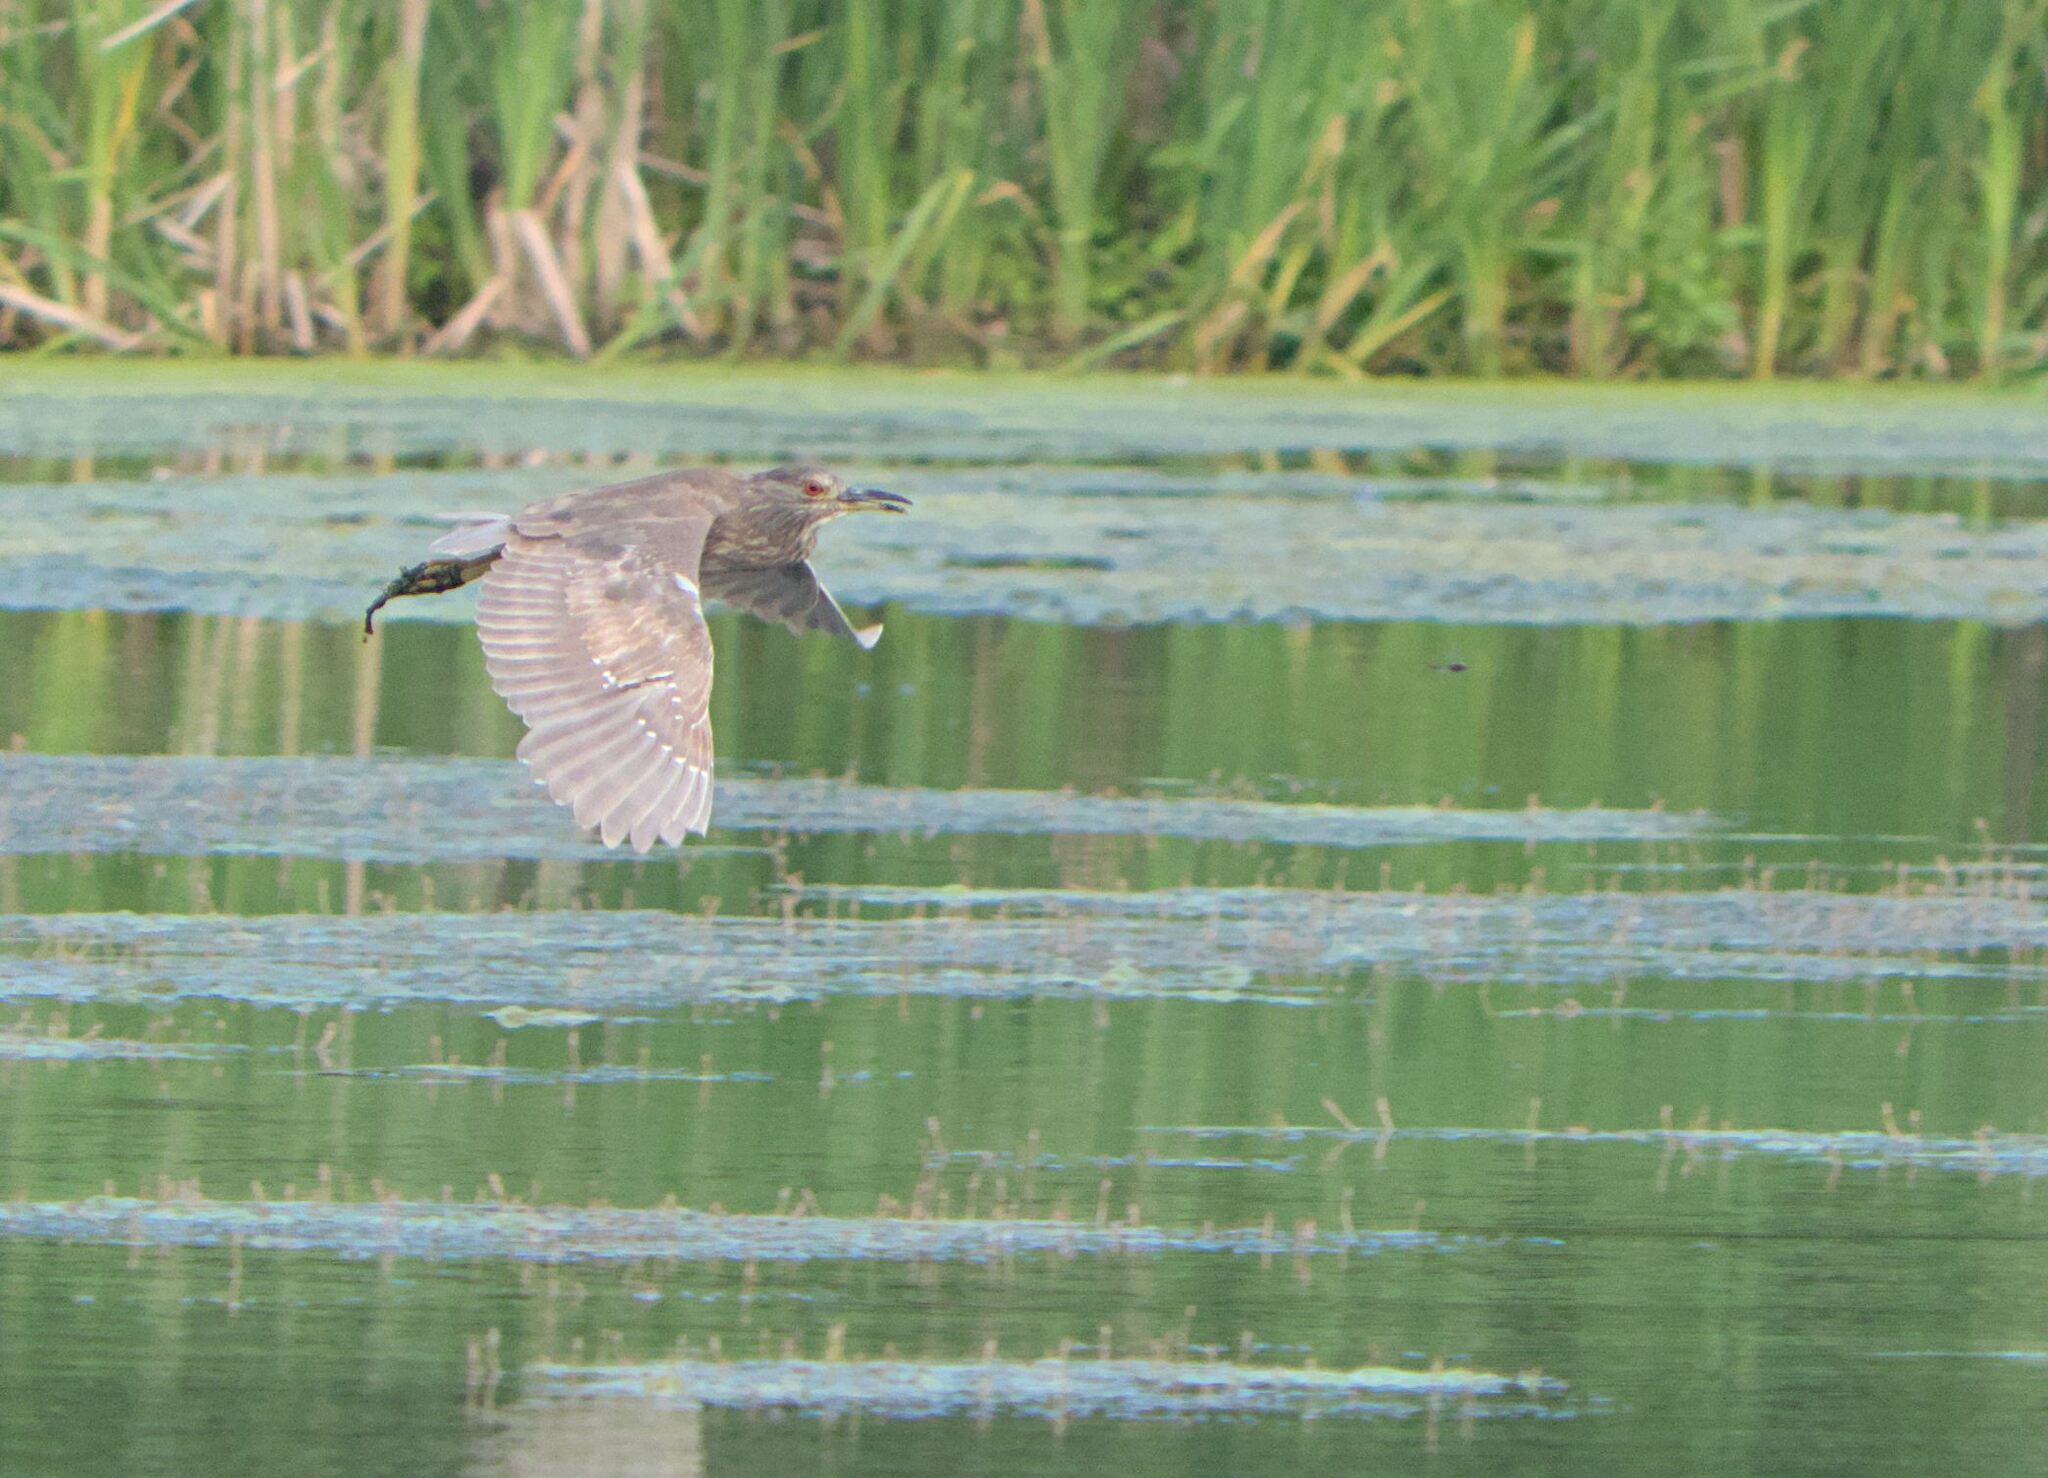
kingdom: Animalia
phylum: Chordata
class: Aves
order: Pelecaniformes
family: Ardeidae
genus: Nycticorax
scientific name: Nycticorax nycticorax
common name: Black-crowned night heron
